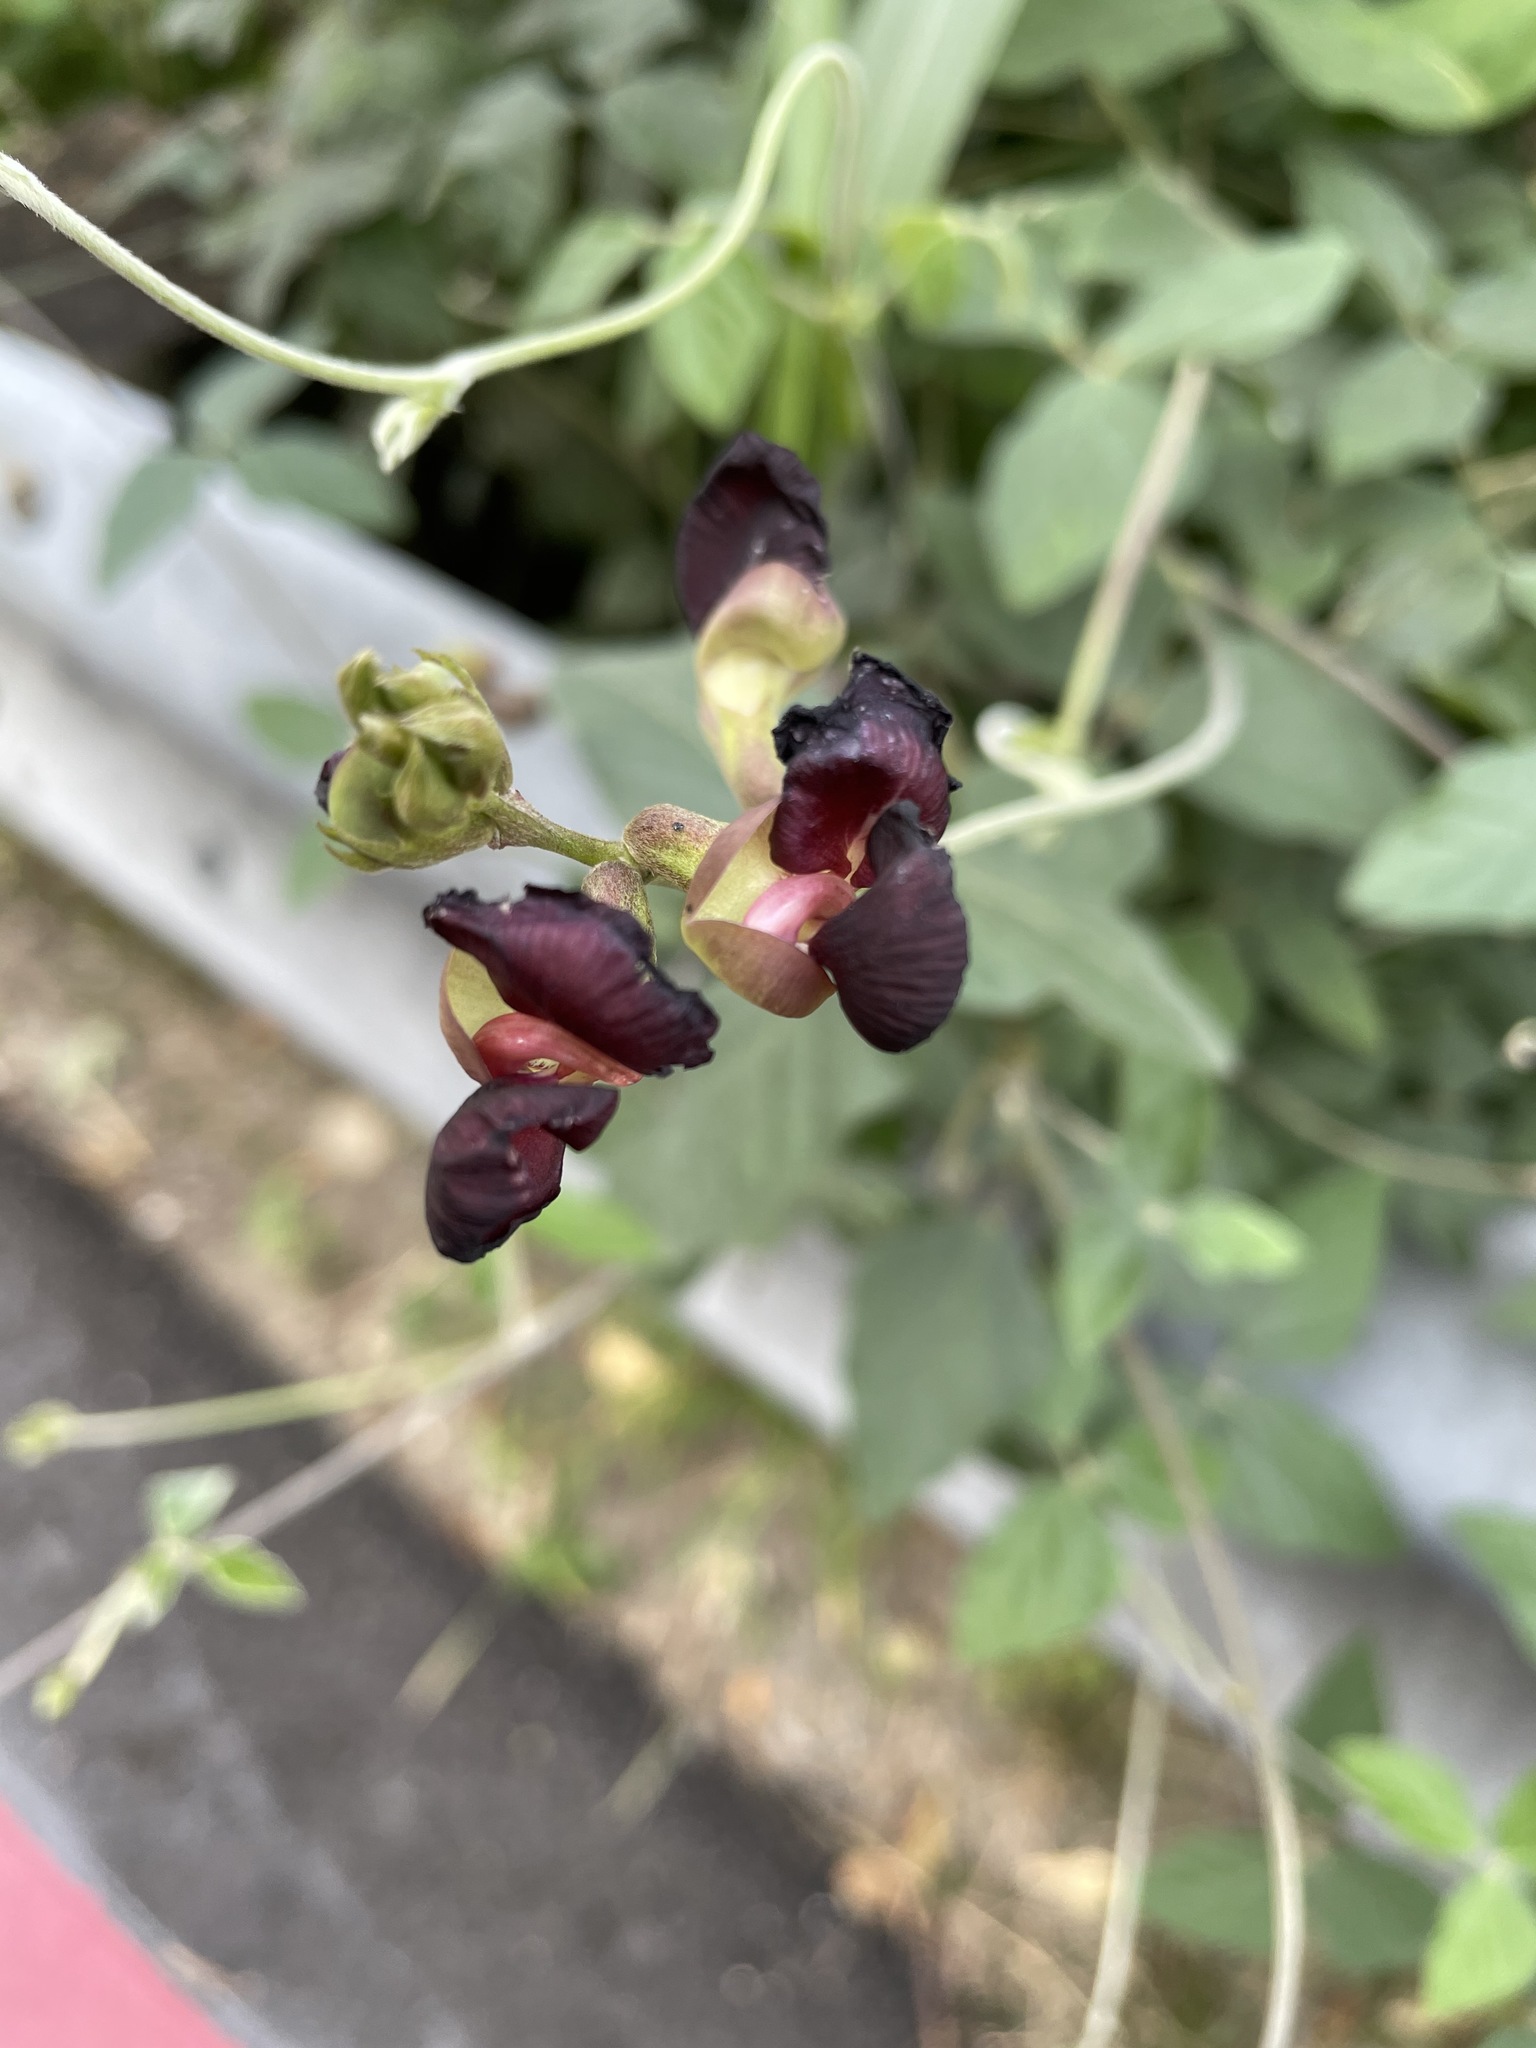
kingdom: Plantae
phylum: Tracheophyta
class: Magnoliopsida
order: Fabales
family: Fabaceae
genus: Macroptilium
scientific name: Macroptilium atropurpureum
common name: Purple bushbean
